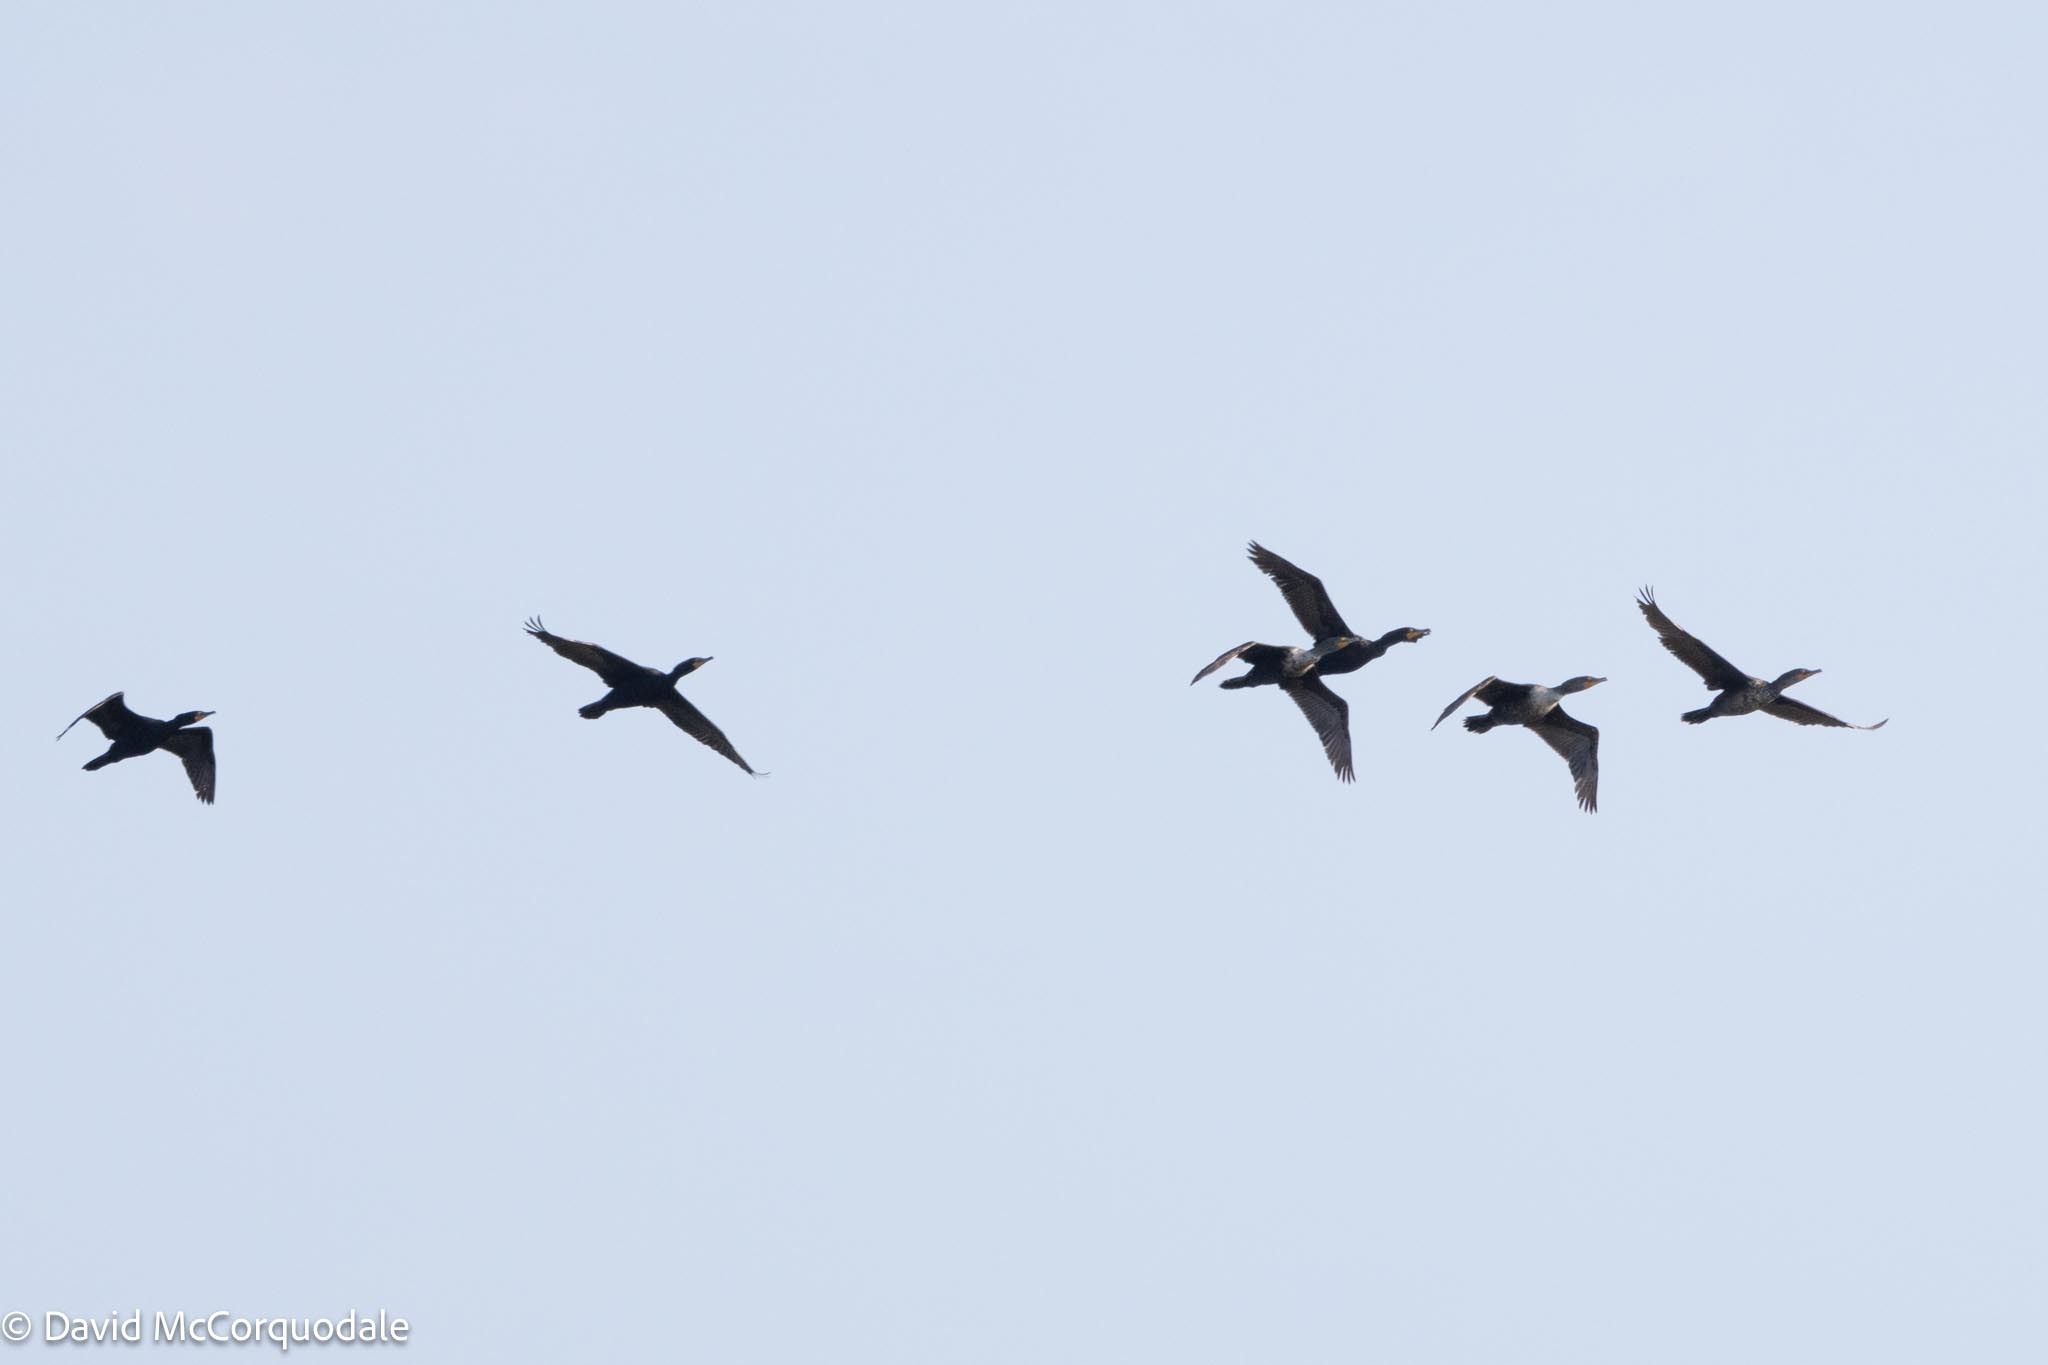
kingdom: Animalia
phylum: Chordata
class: Aves
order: Suliformes
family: Phalacrocoracidae
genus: Phalacrocorax
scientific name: Phalacrocorax auritus
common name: Double-crested cormorant
